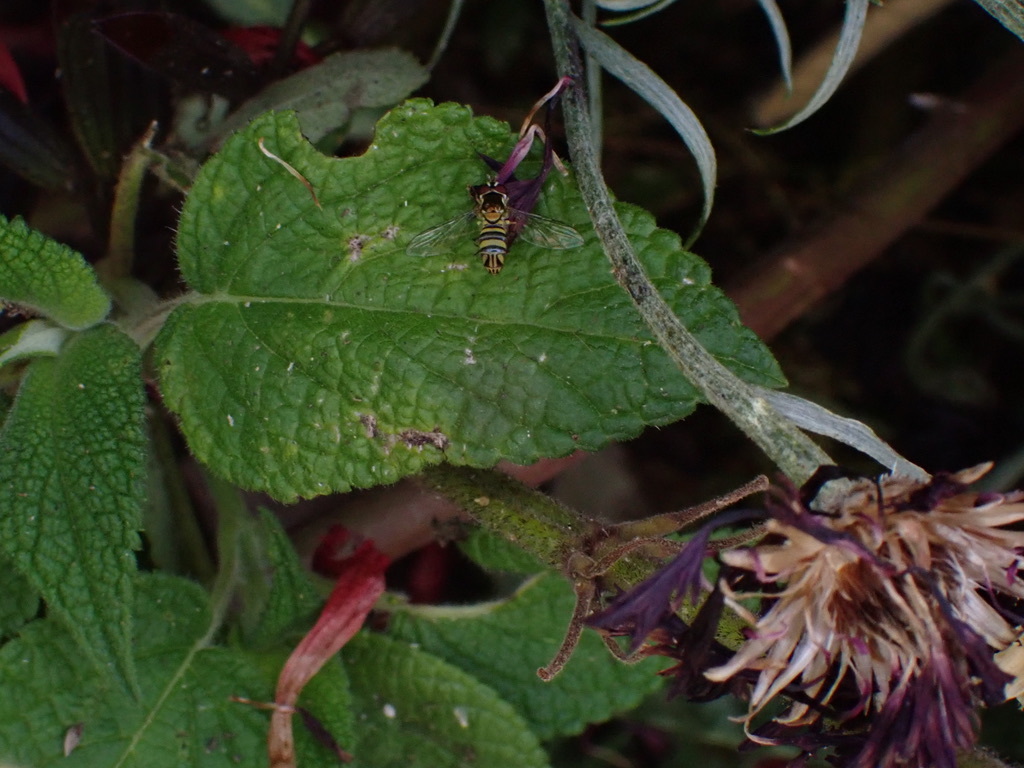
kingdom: Animalia
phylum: Arthropoda
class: Insecta
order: Diptera
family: Syrphidae
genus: Allograpta
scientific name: Allograpta obliqua
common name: Common oblique syrphid
